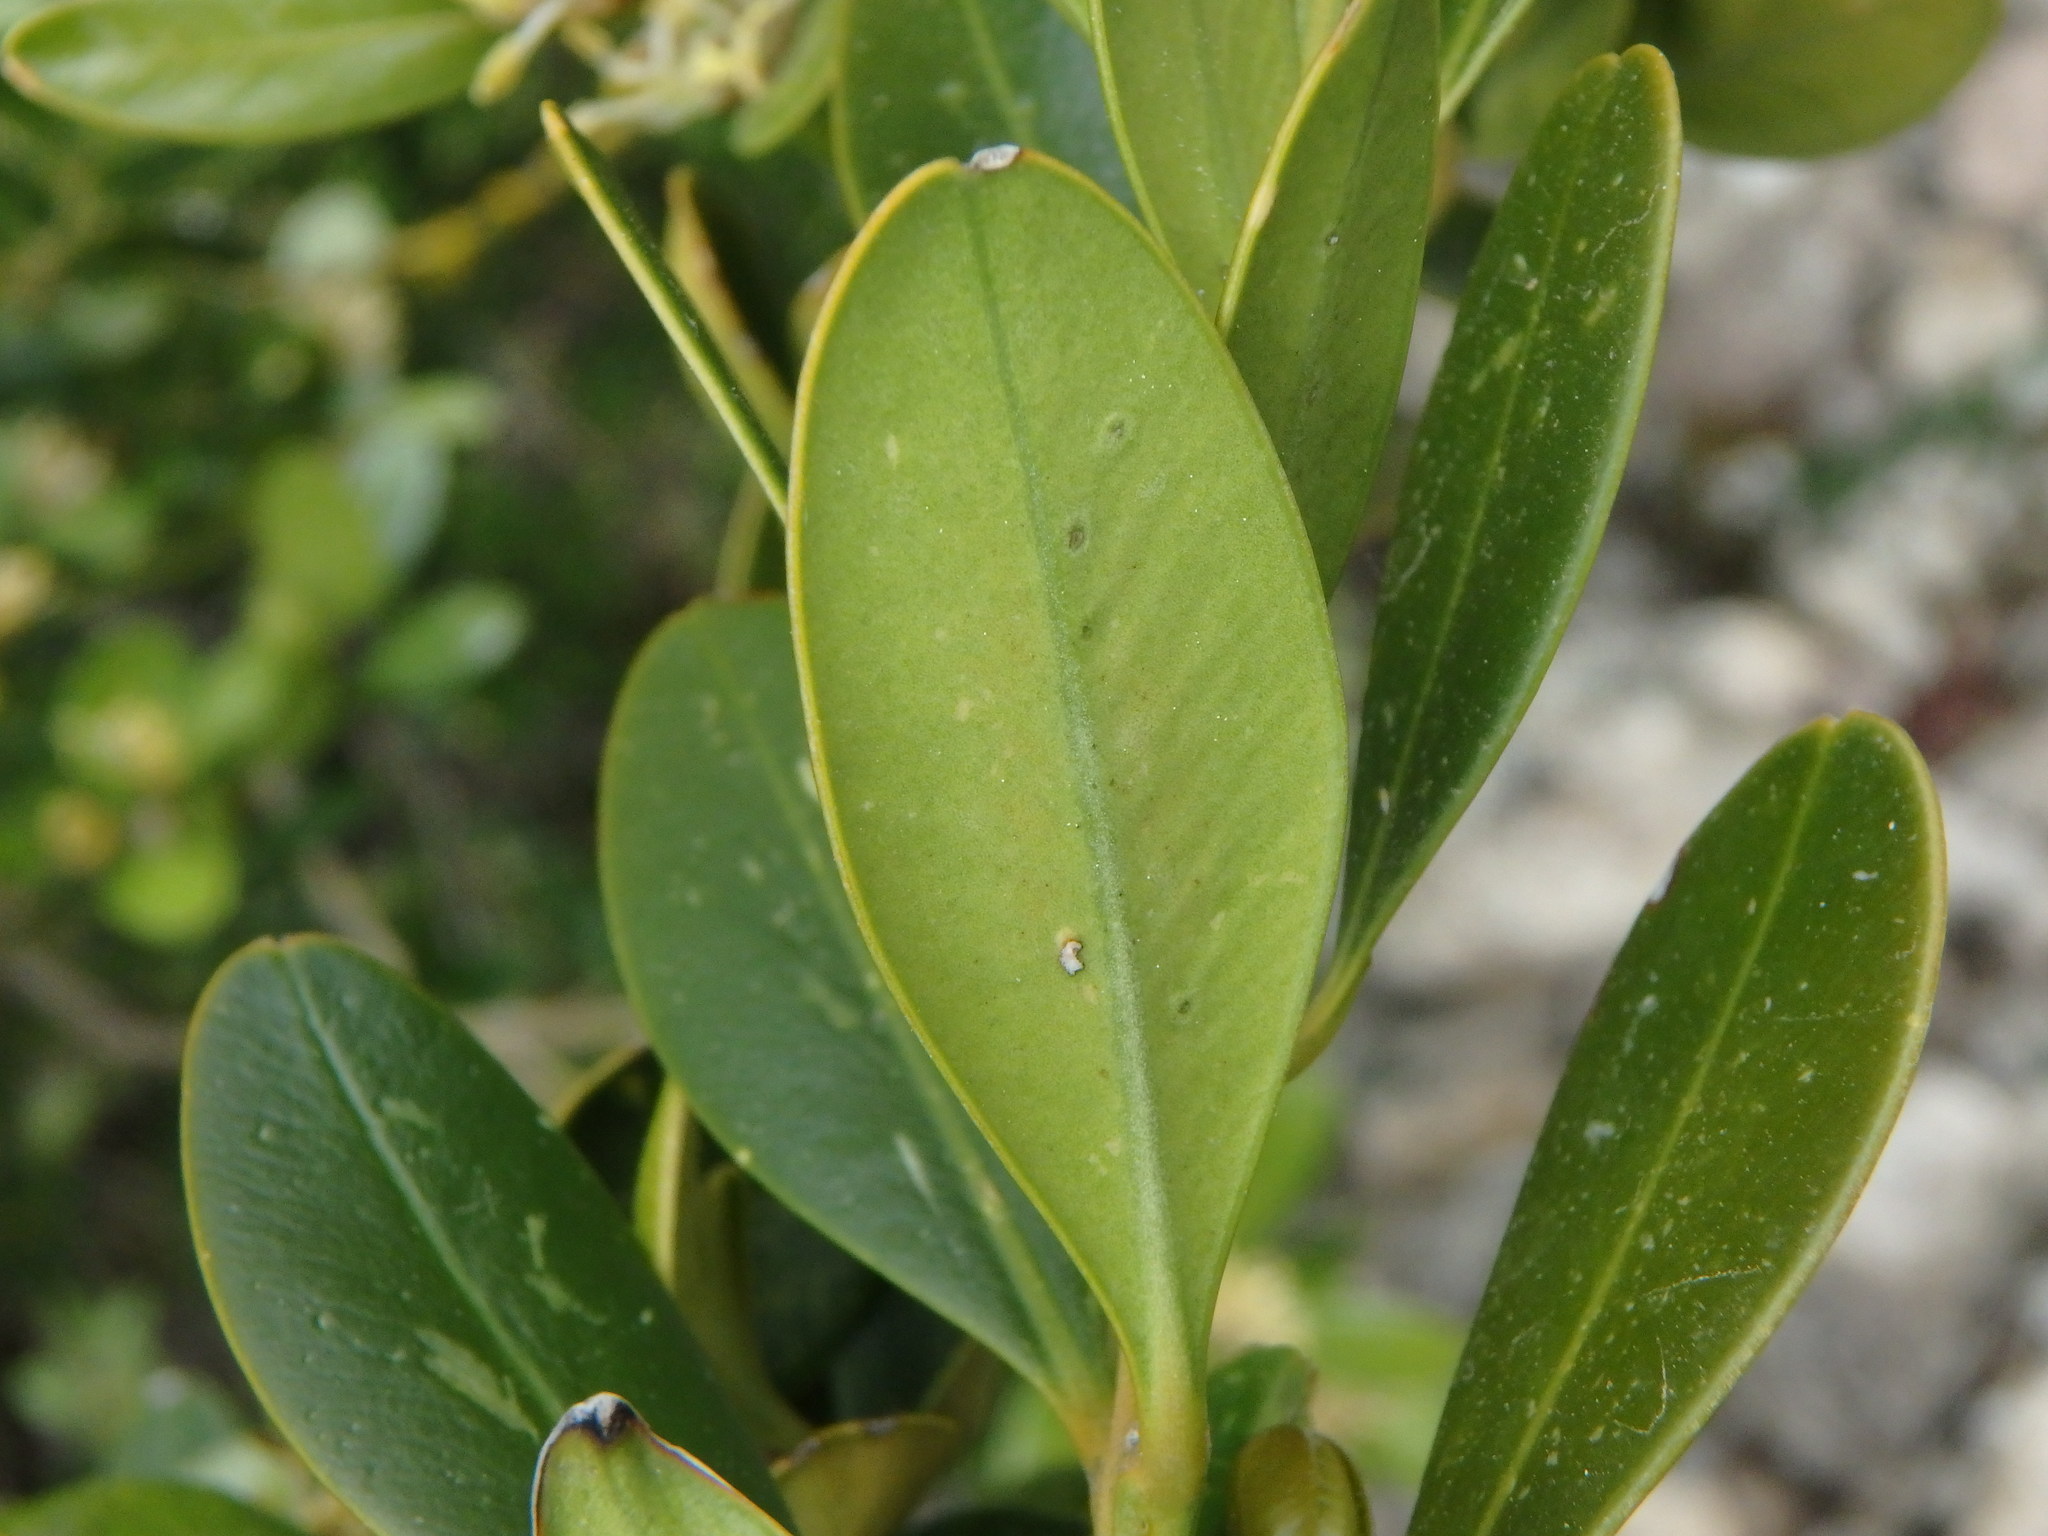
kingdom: Plantae
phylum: Tracheophyta
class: Magnoliopsida
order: Buxales
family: Buxaceae
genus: Buxus
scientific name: Buxus balearica
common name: Balearic box
